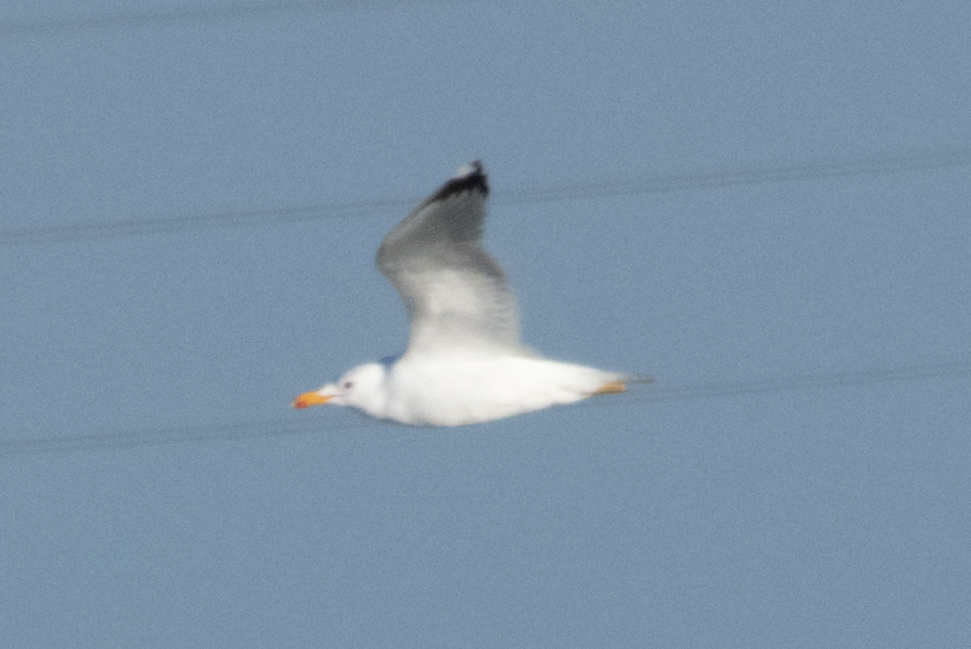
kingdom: Animalia
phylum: Chordata
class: Aves
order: Charadriiformes
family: Laridae
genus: Larus
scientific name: Larus californicus
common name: California gull
